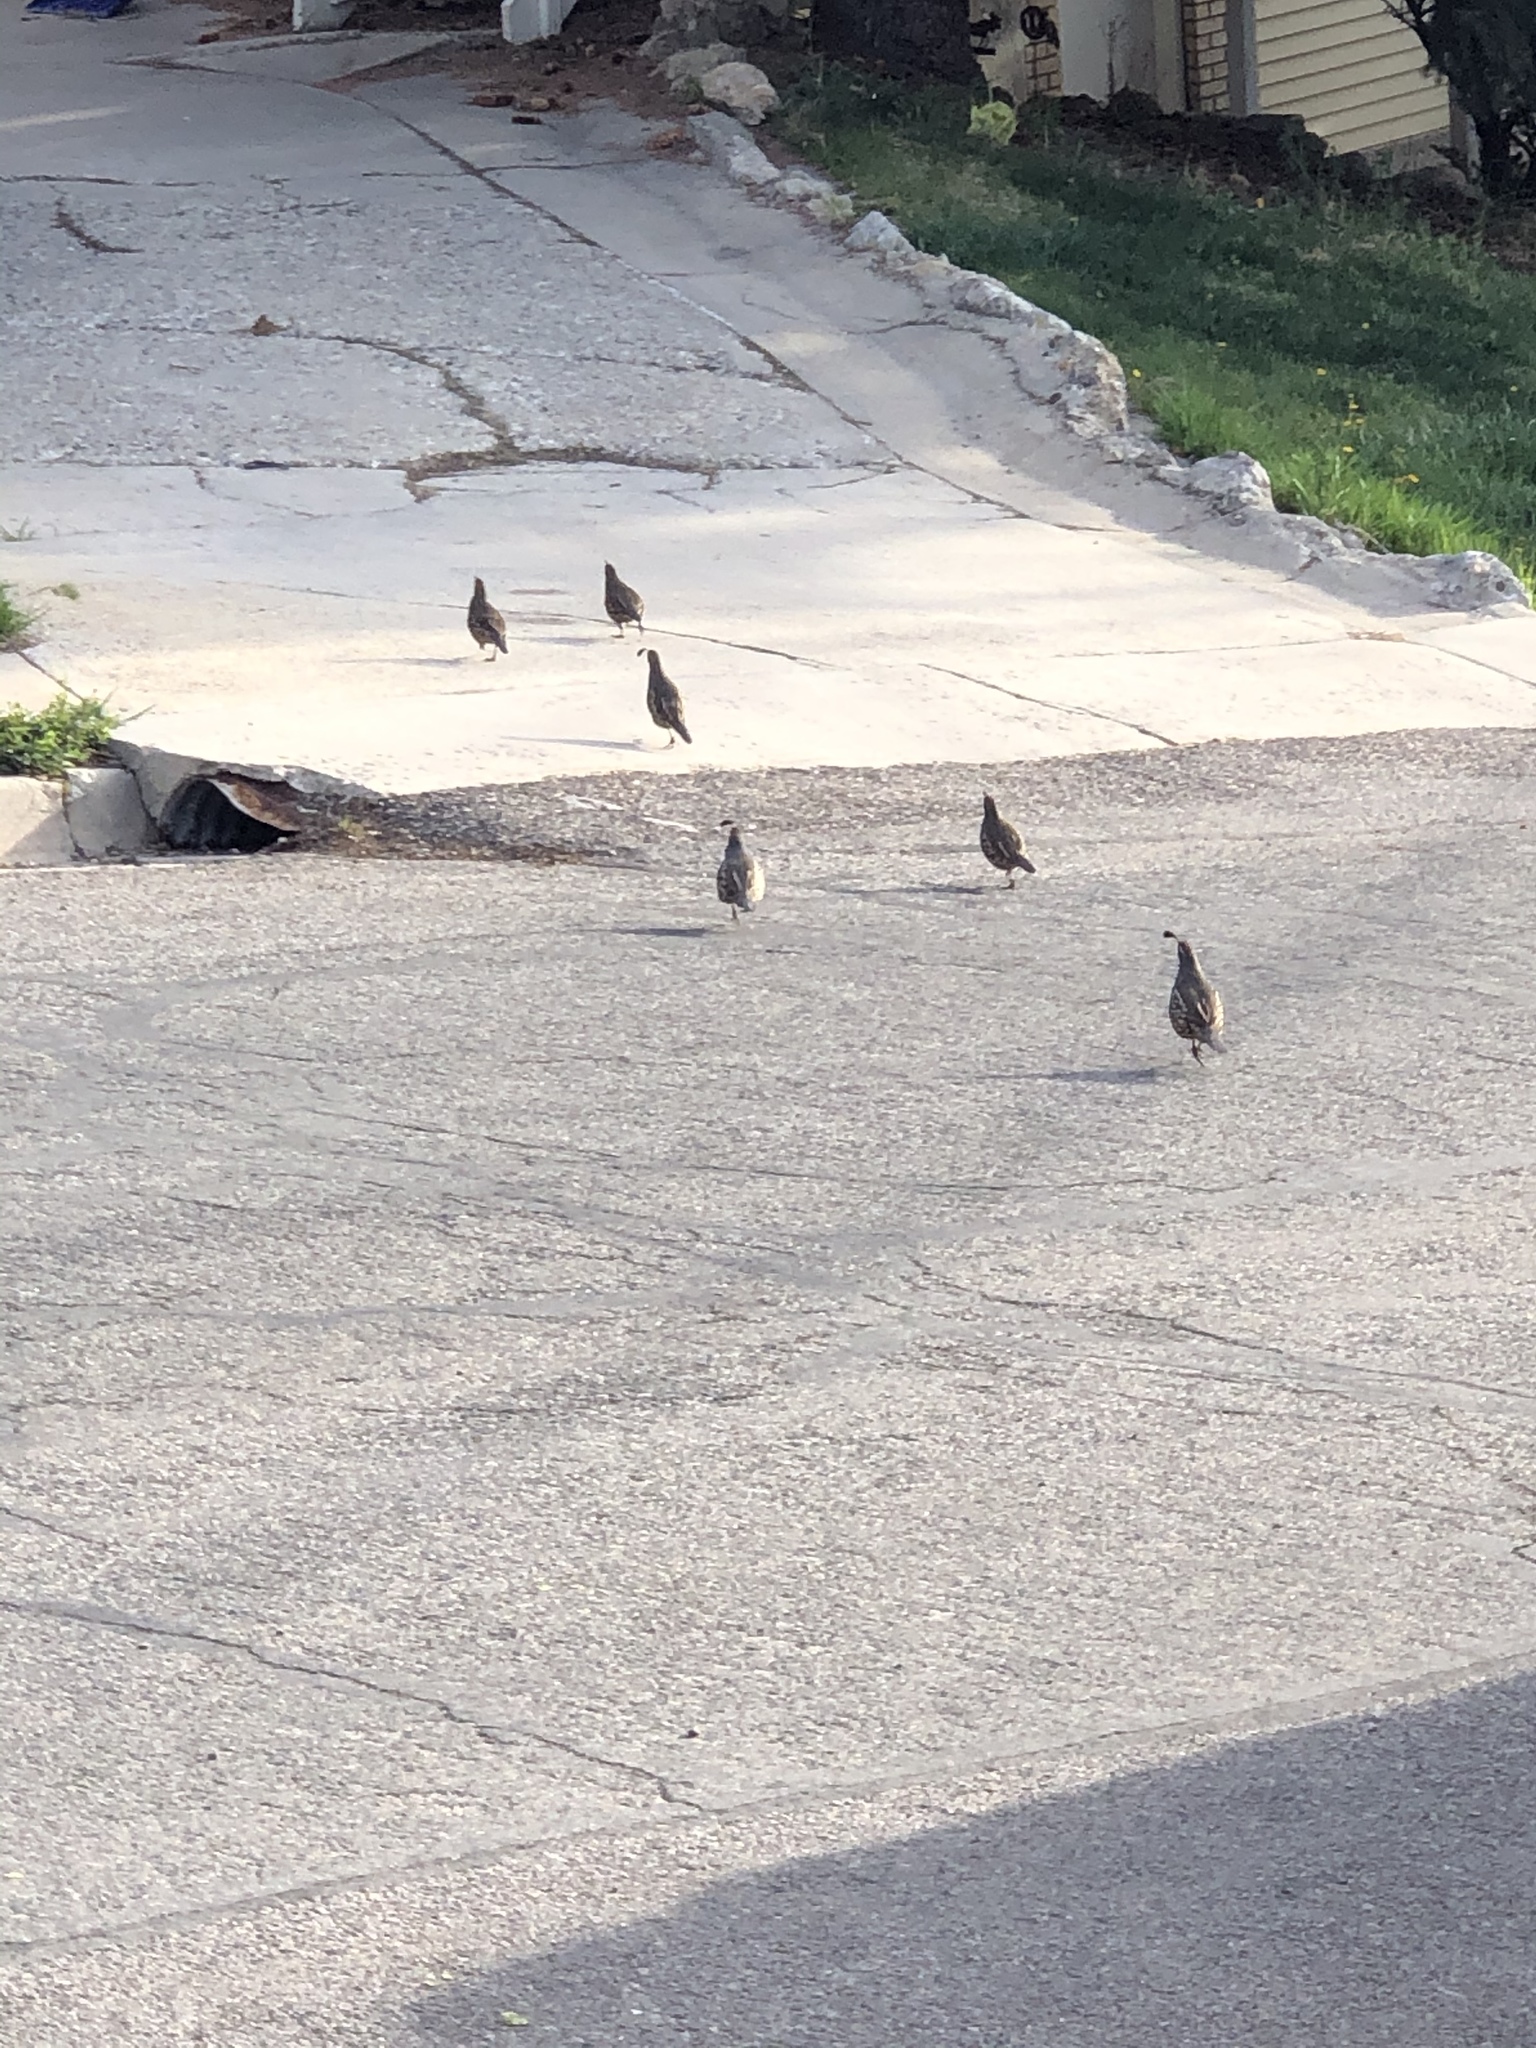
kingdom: Animalia
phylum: Chordata
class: Aves
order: Galliformes
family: Odontophoridae
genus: Callipepla
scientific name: Callipepla californica
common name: California quail
